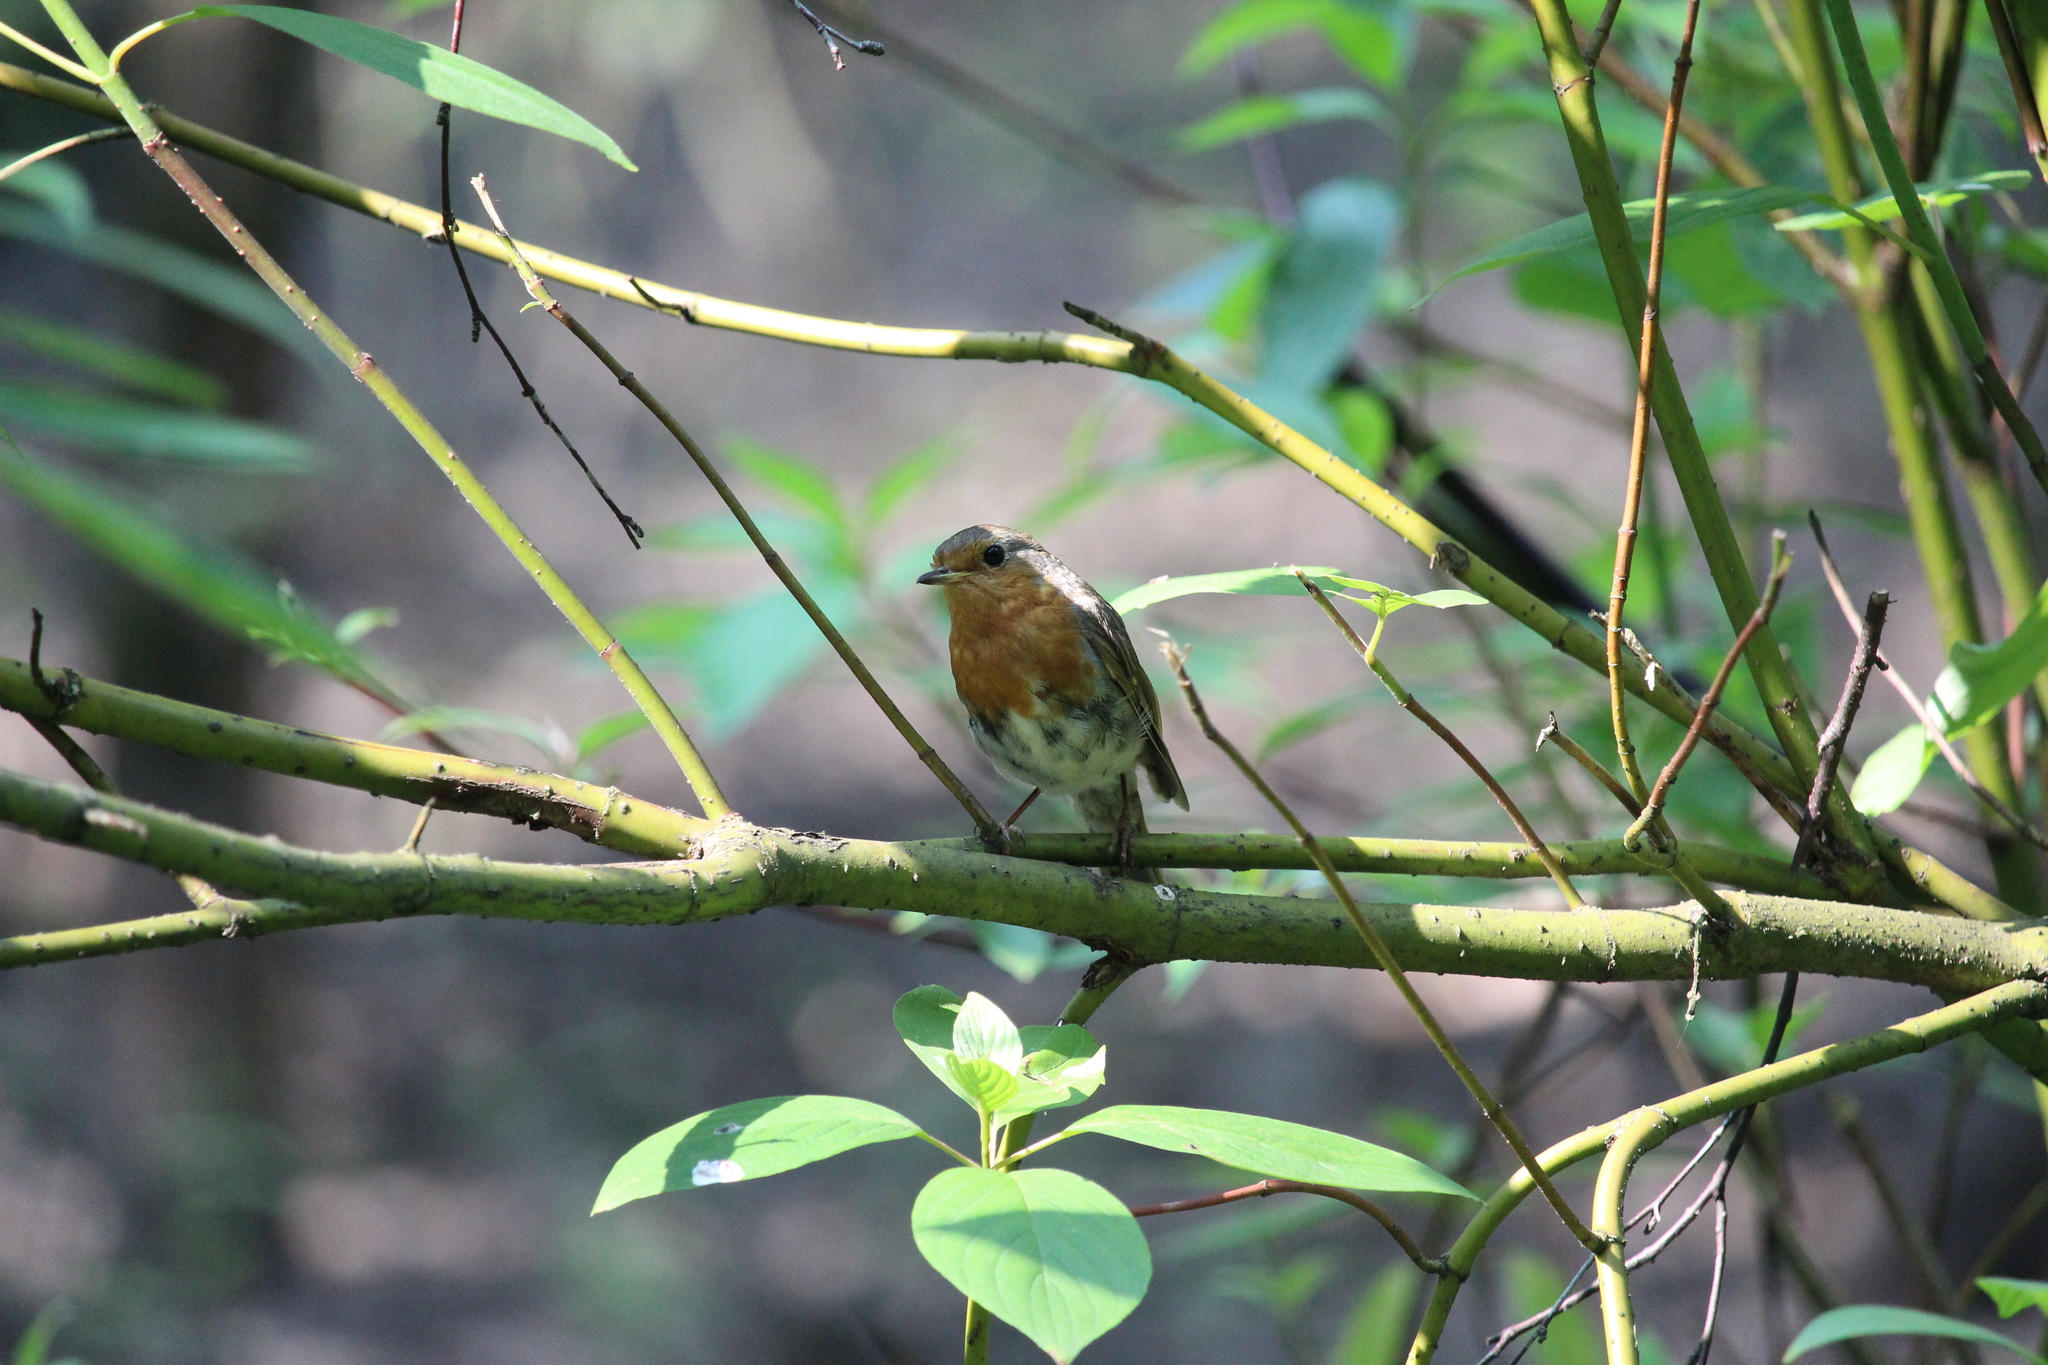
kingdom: Animalia
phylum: Chordata
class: Aves
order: Passeriformes
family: Muscicapidae
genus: Erithacus
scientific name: Erithacus rubecula
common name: European robin
